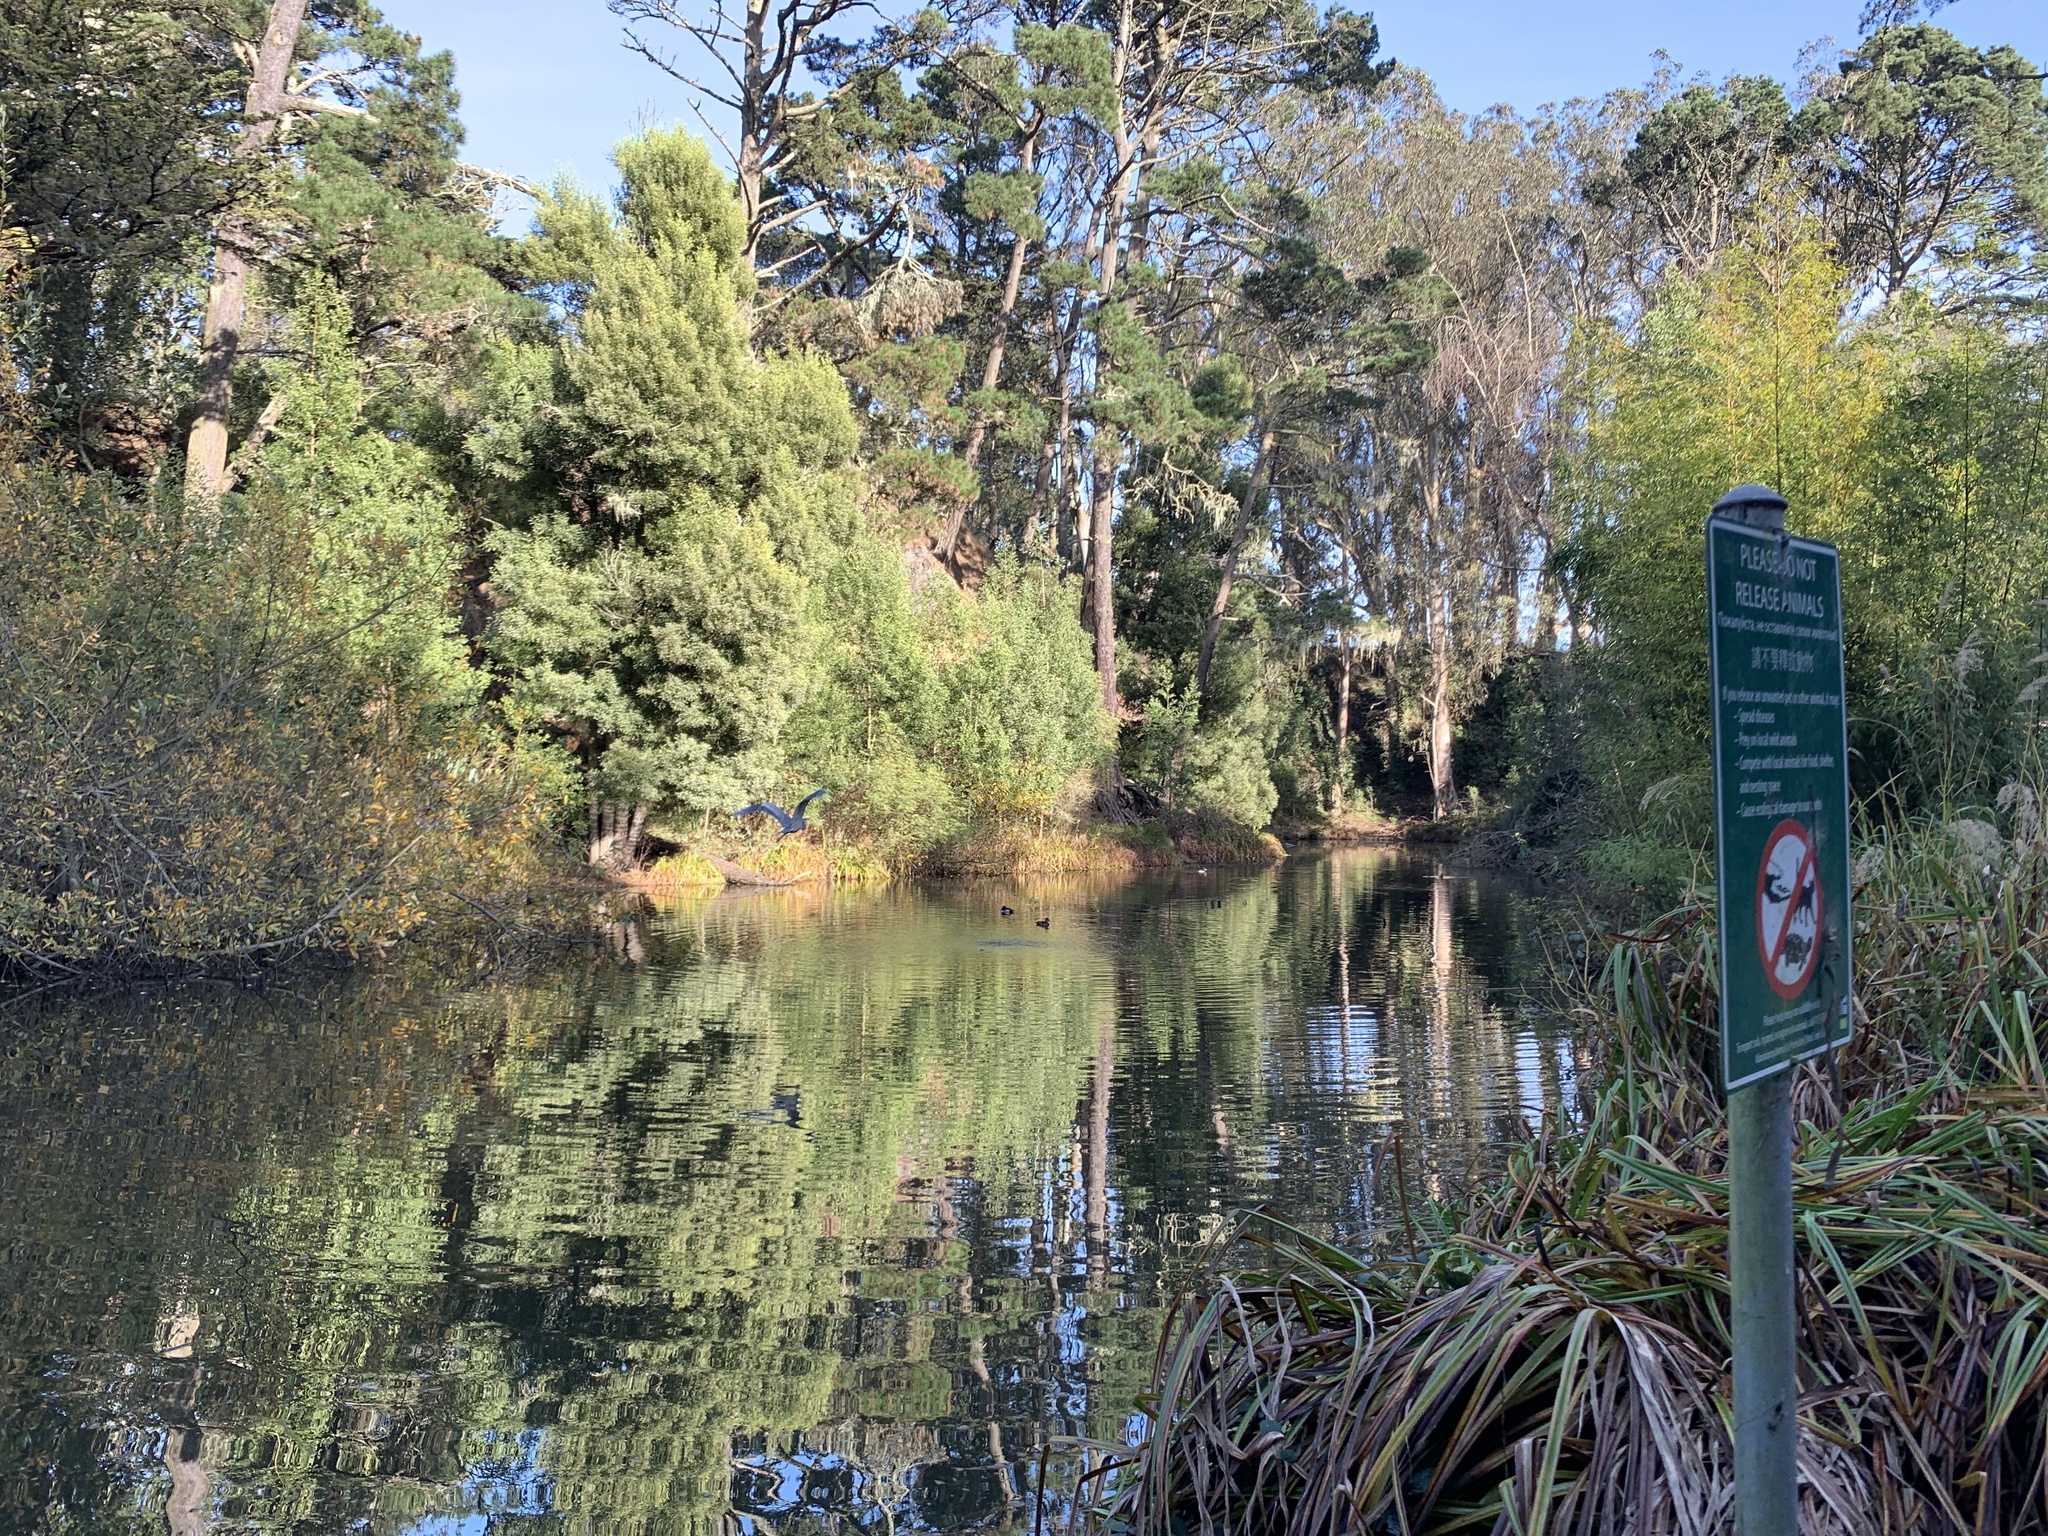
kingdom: Animalia
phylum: Chordata
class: Aves
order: Pelecaniformes
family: Ardeidae
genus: Ardea
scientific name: Ardea herodias
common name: Great blue heron
